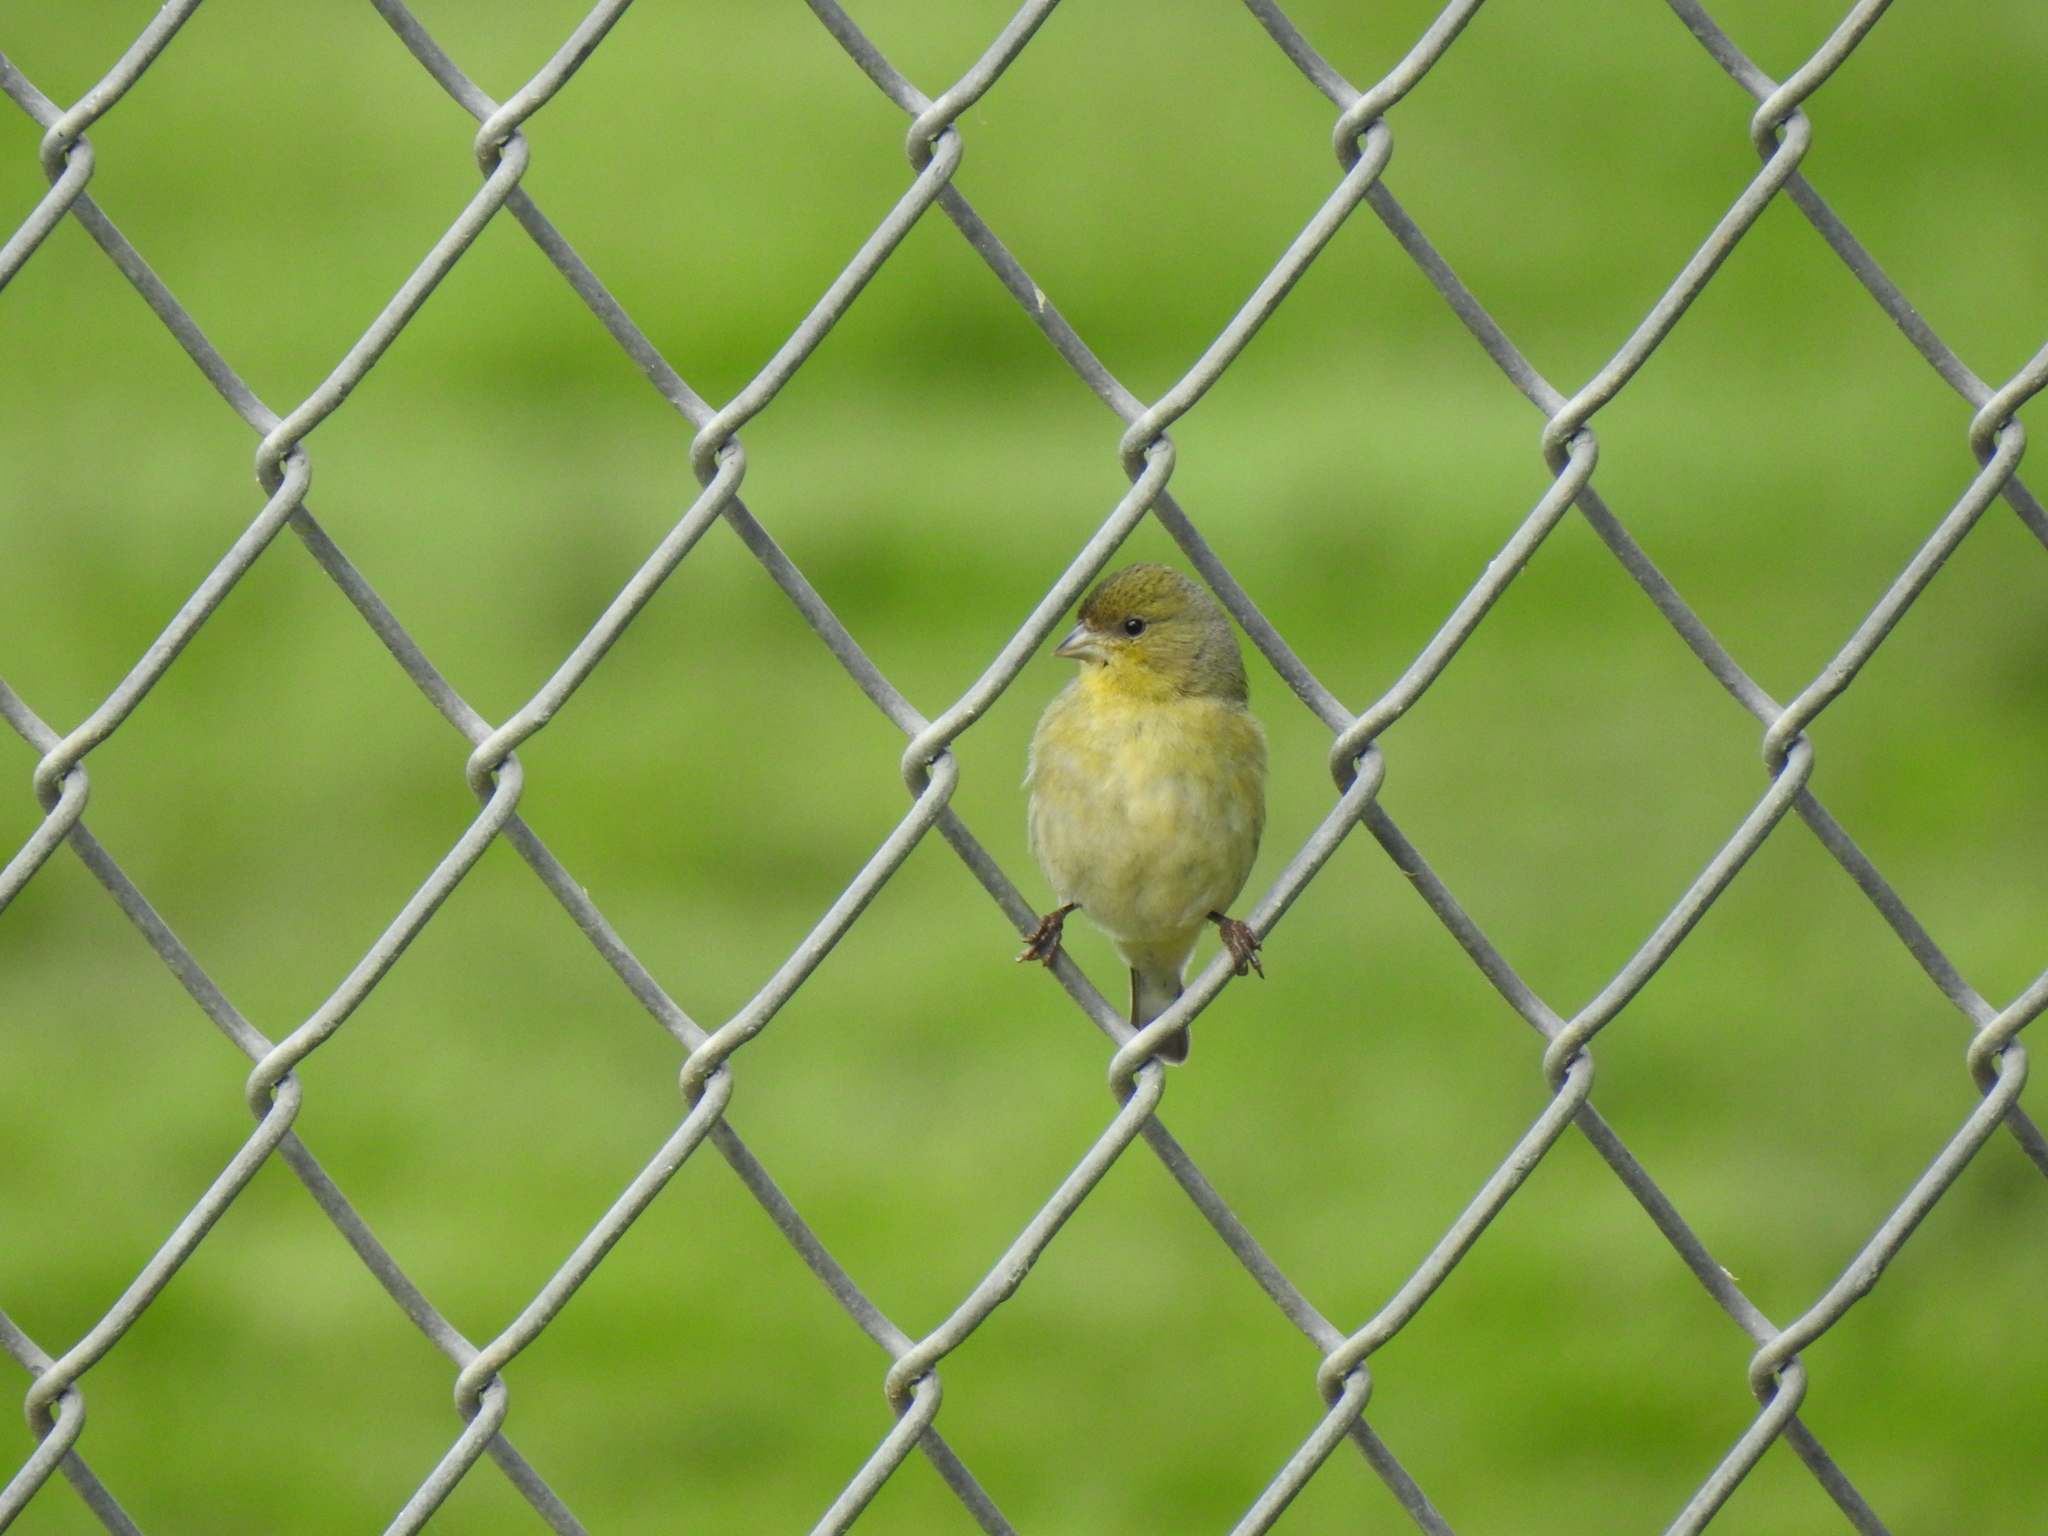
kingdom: Animalia
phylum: Chordata
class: Aves
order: Passeriformes
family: Fringillidae
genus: Spinus
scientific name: Spinus psaltria
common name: Lesser goldfinch
